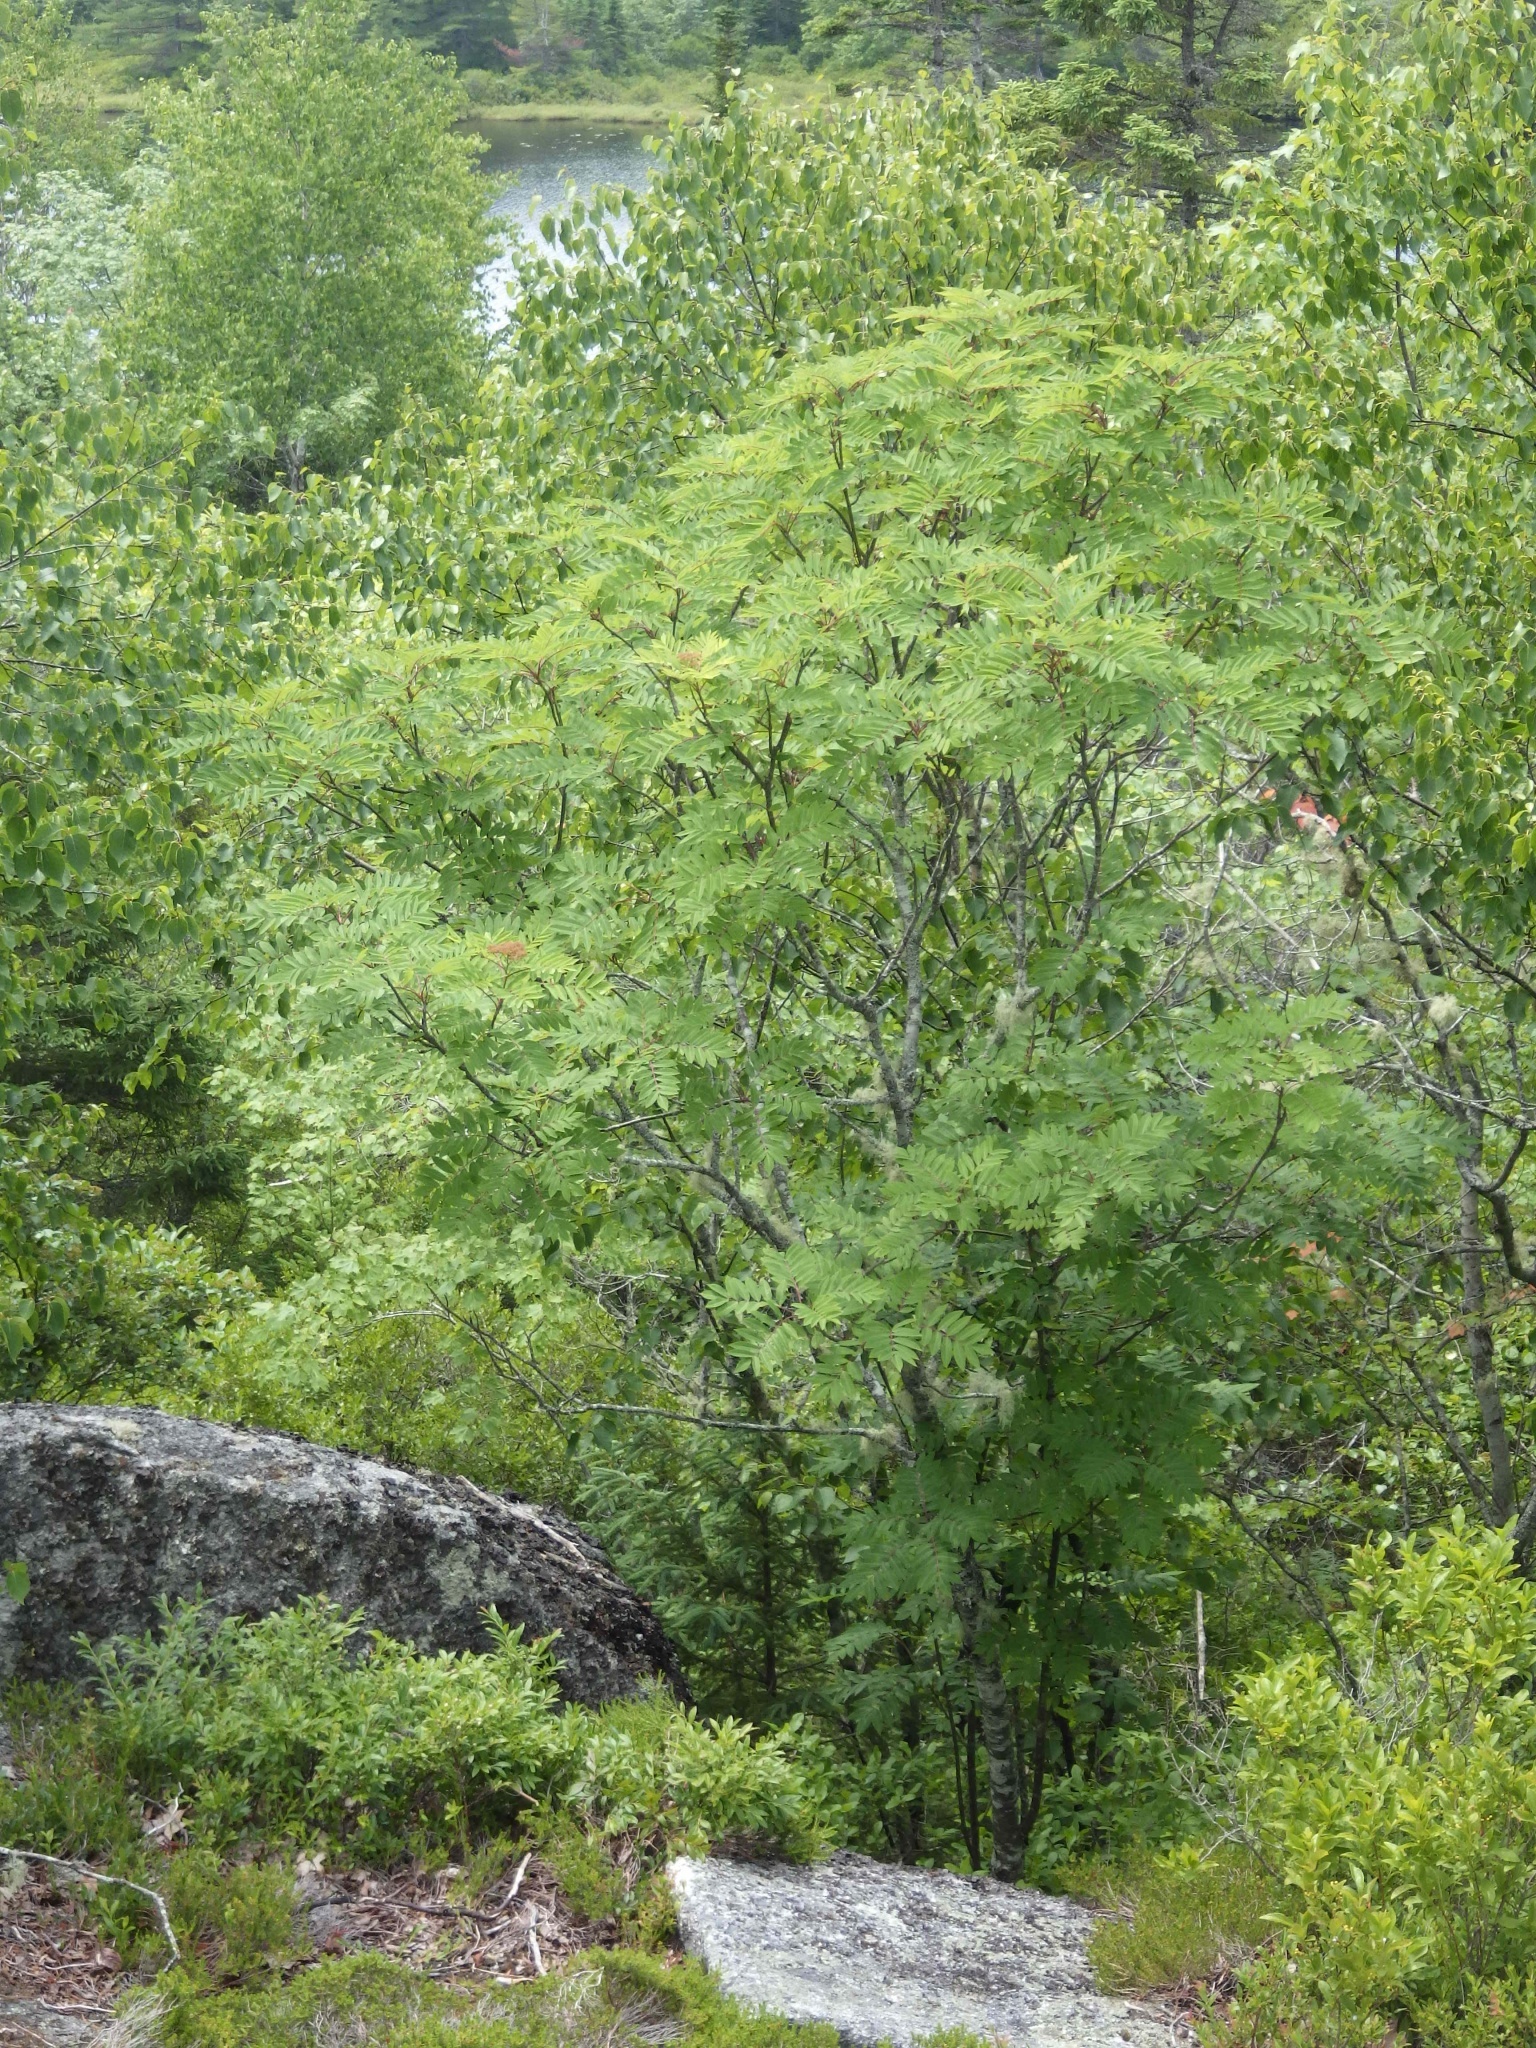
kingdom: Plantae
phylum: Tracheophyta
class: Magnoliopsida
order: Rosales
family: Rosaceae
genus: Sorbus
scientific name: Sorbus americana
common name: American mountain-ash
